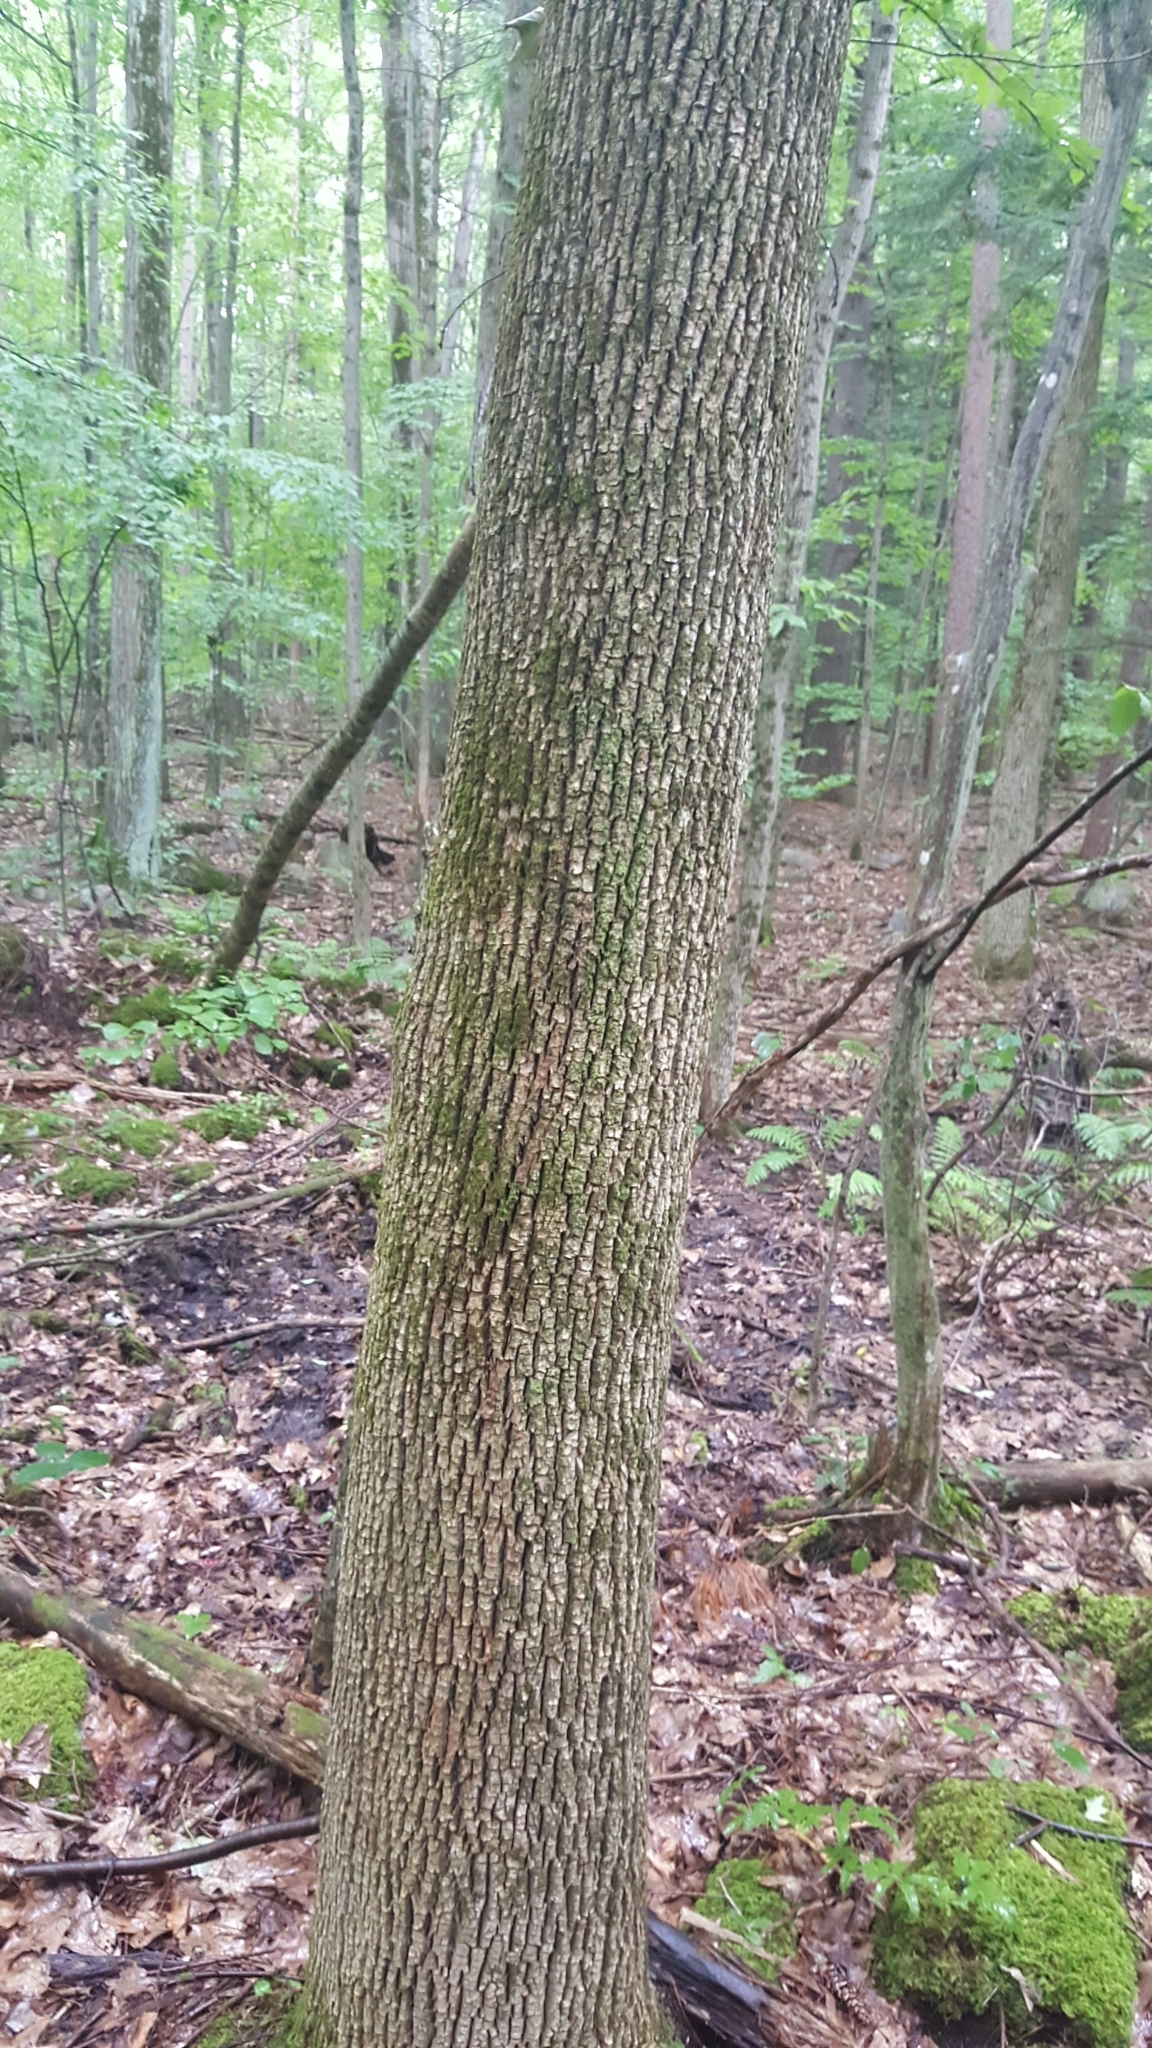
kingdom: Plantae
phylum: Tracheophyta
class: Magnoliopsida
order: Lamiales
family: Oleaceae
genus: Fraxinus
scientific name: Fraxinus americana
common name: White ash
